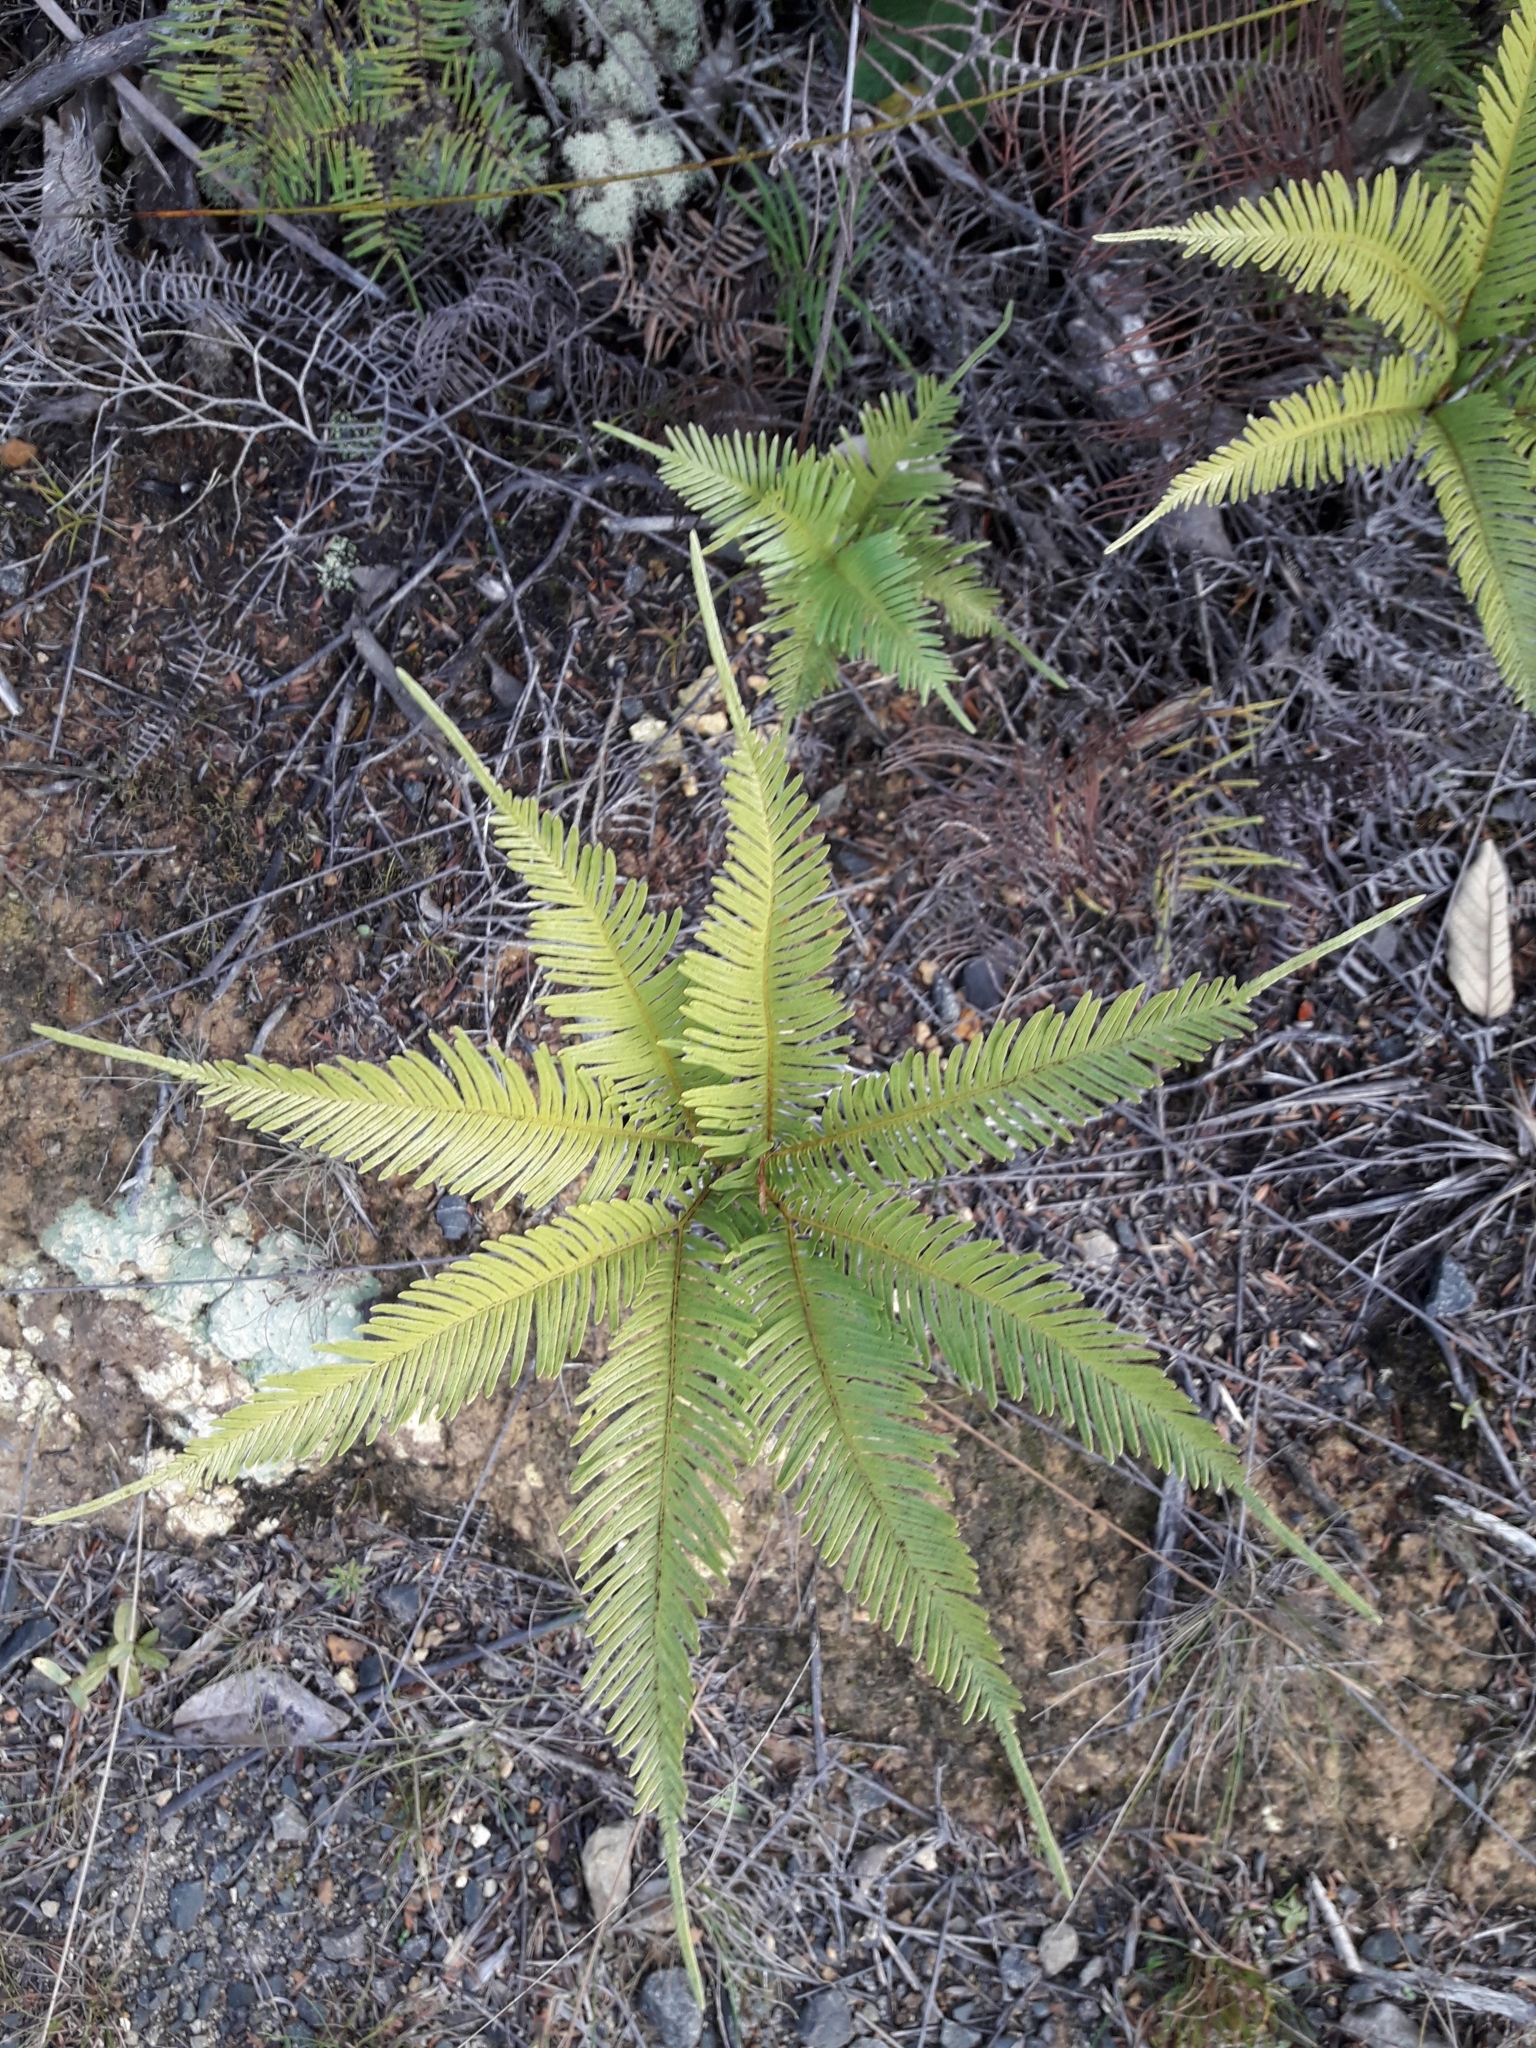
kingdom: Plantae
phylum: Tracheophyta
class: Polypodiopsida
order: Gleicheniales
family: Gleicheniaceae
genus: Sticherus
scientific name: Sticherus flabellatus
